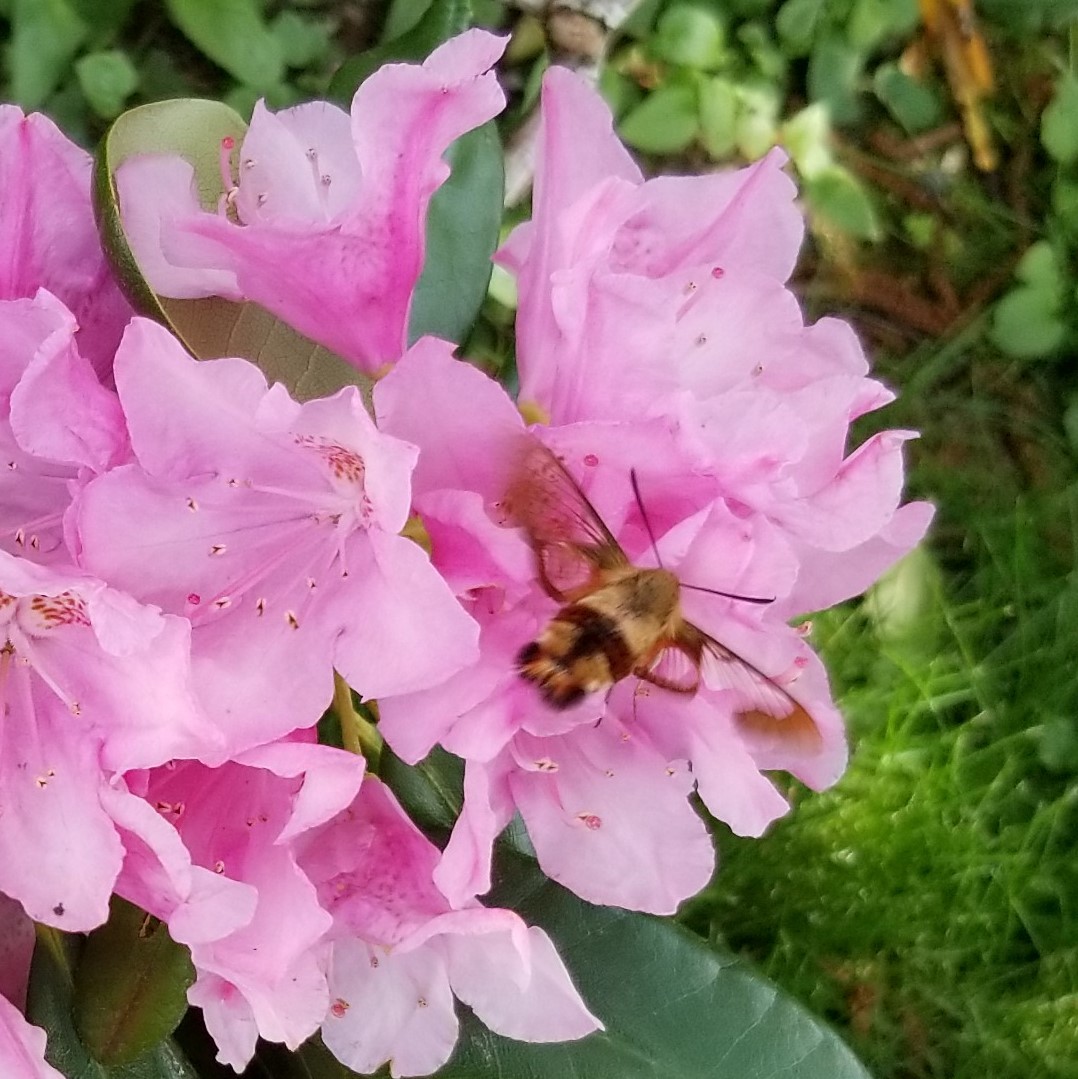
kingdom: Animalia
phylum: Arthropoda
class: Insecta
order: Lepidoptera
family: Sphingidae
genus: Hemaris
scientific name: Hemaris thysbe
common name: Common clear-wing
